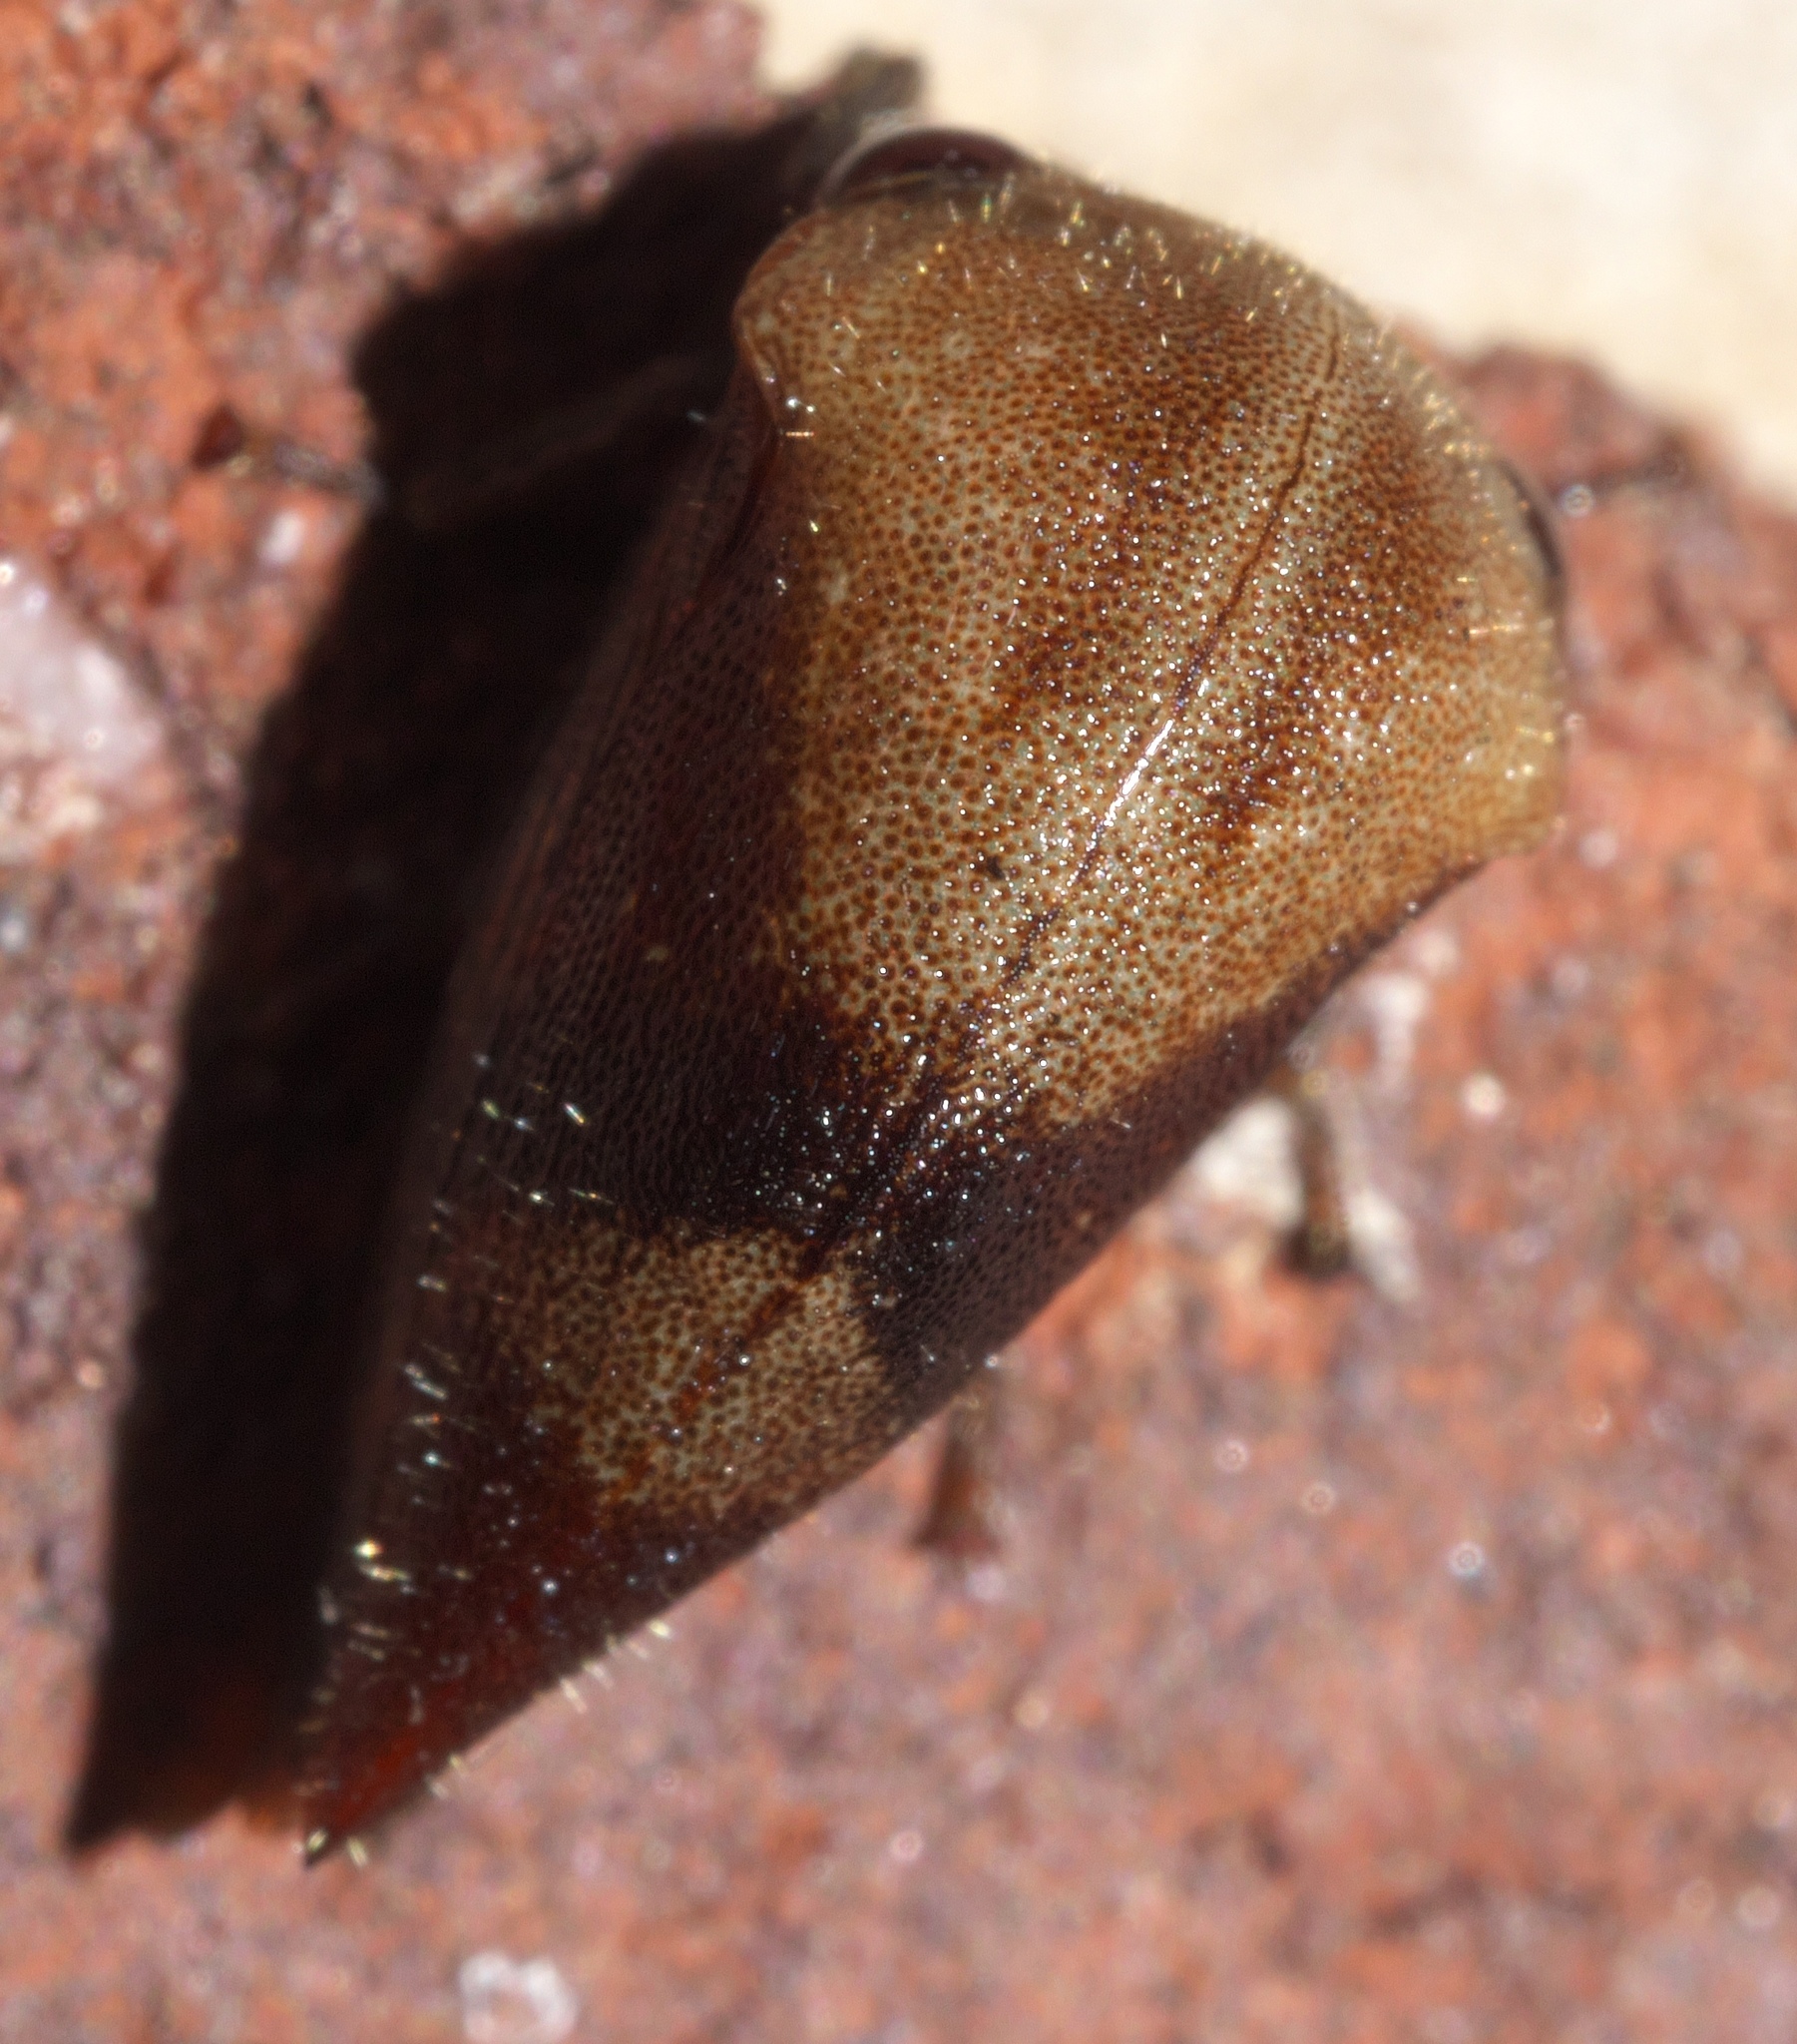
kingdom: Animalia
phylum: Arthropoda
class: Insecta
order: Hemiptera
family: Membracidae
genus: Carynota
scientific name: Carynota mera
